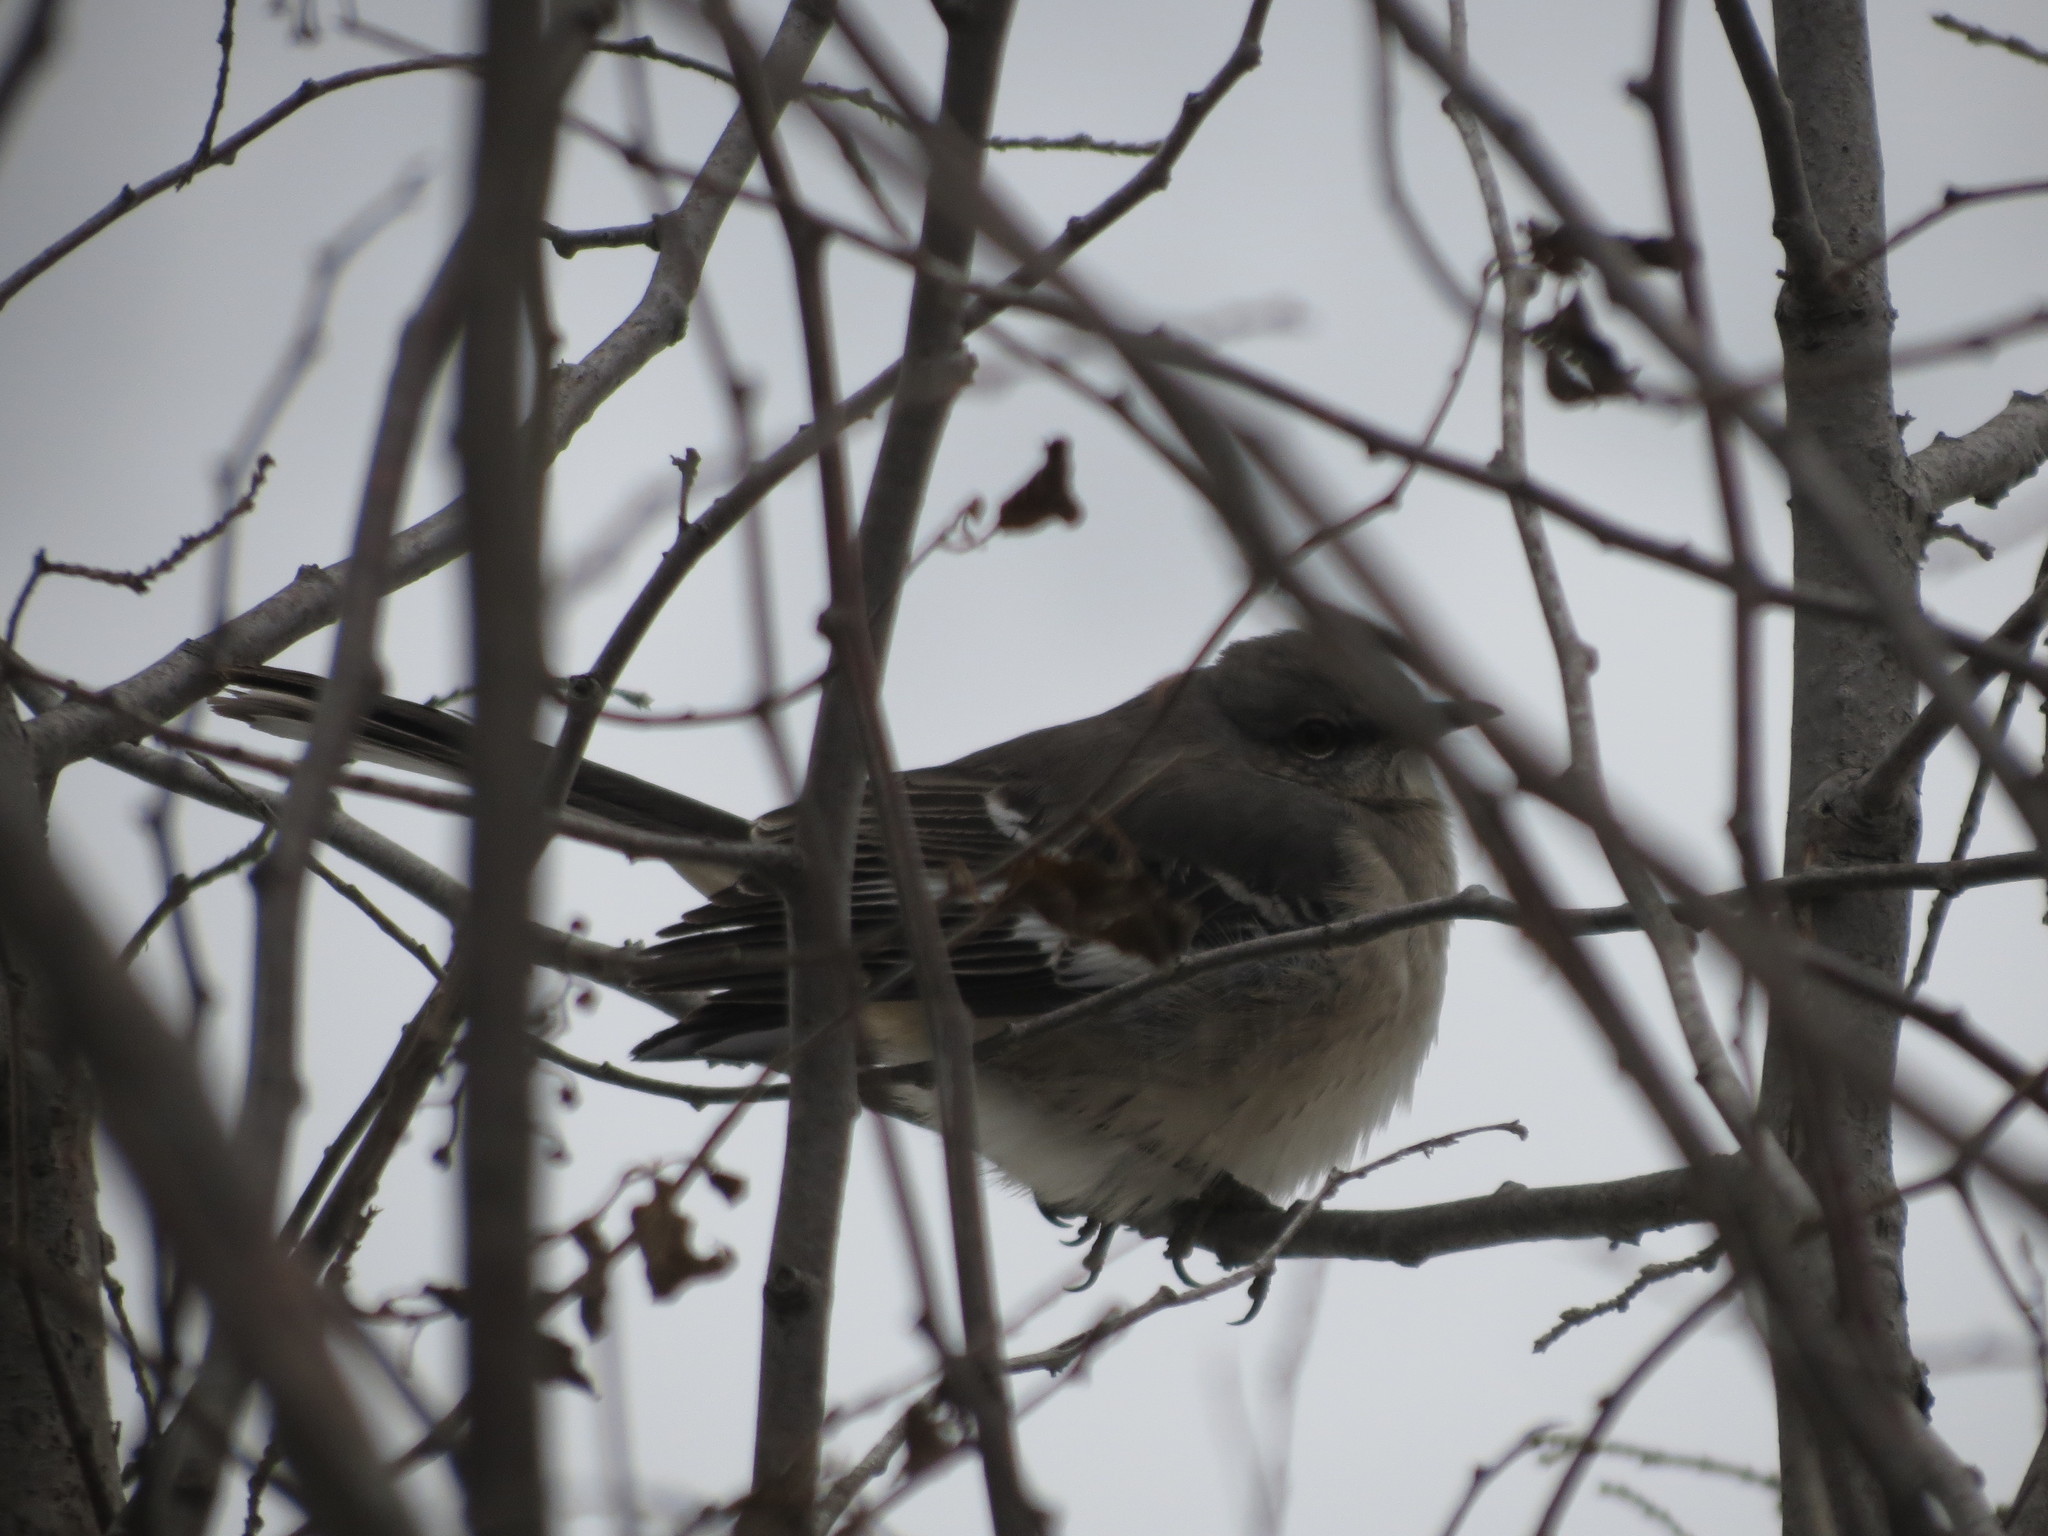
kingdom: Animalia
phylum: Chordata
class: Aves
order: Passeriformes
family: Mimidae
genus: Mimus
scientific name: Mimus polyglottos
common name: Northern mockingbird
